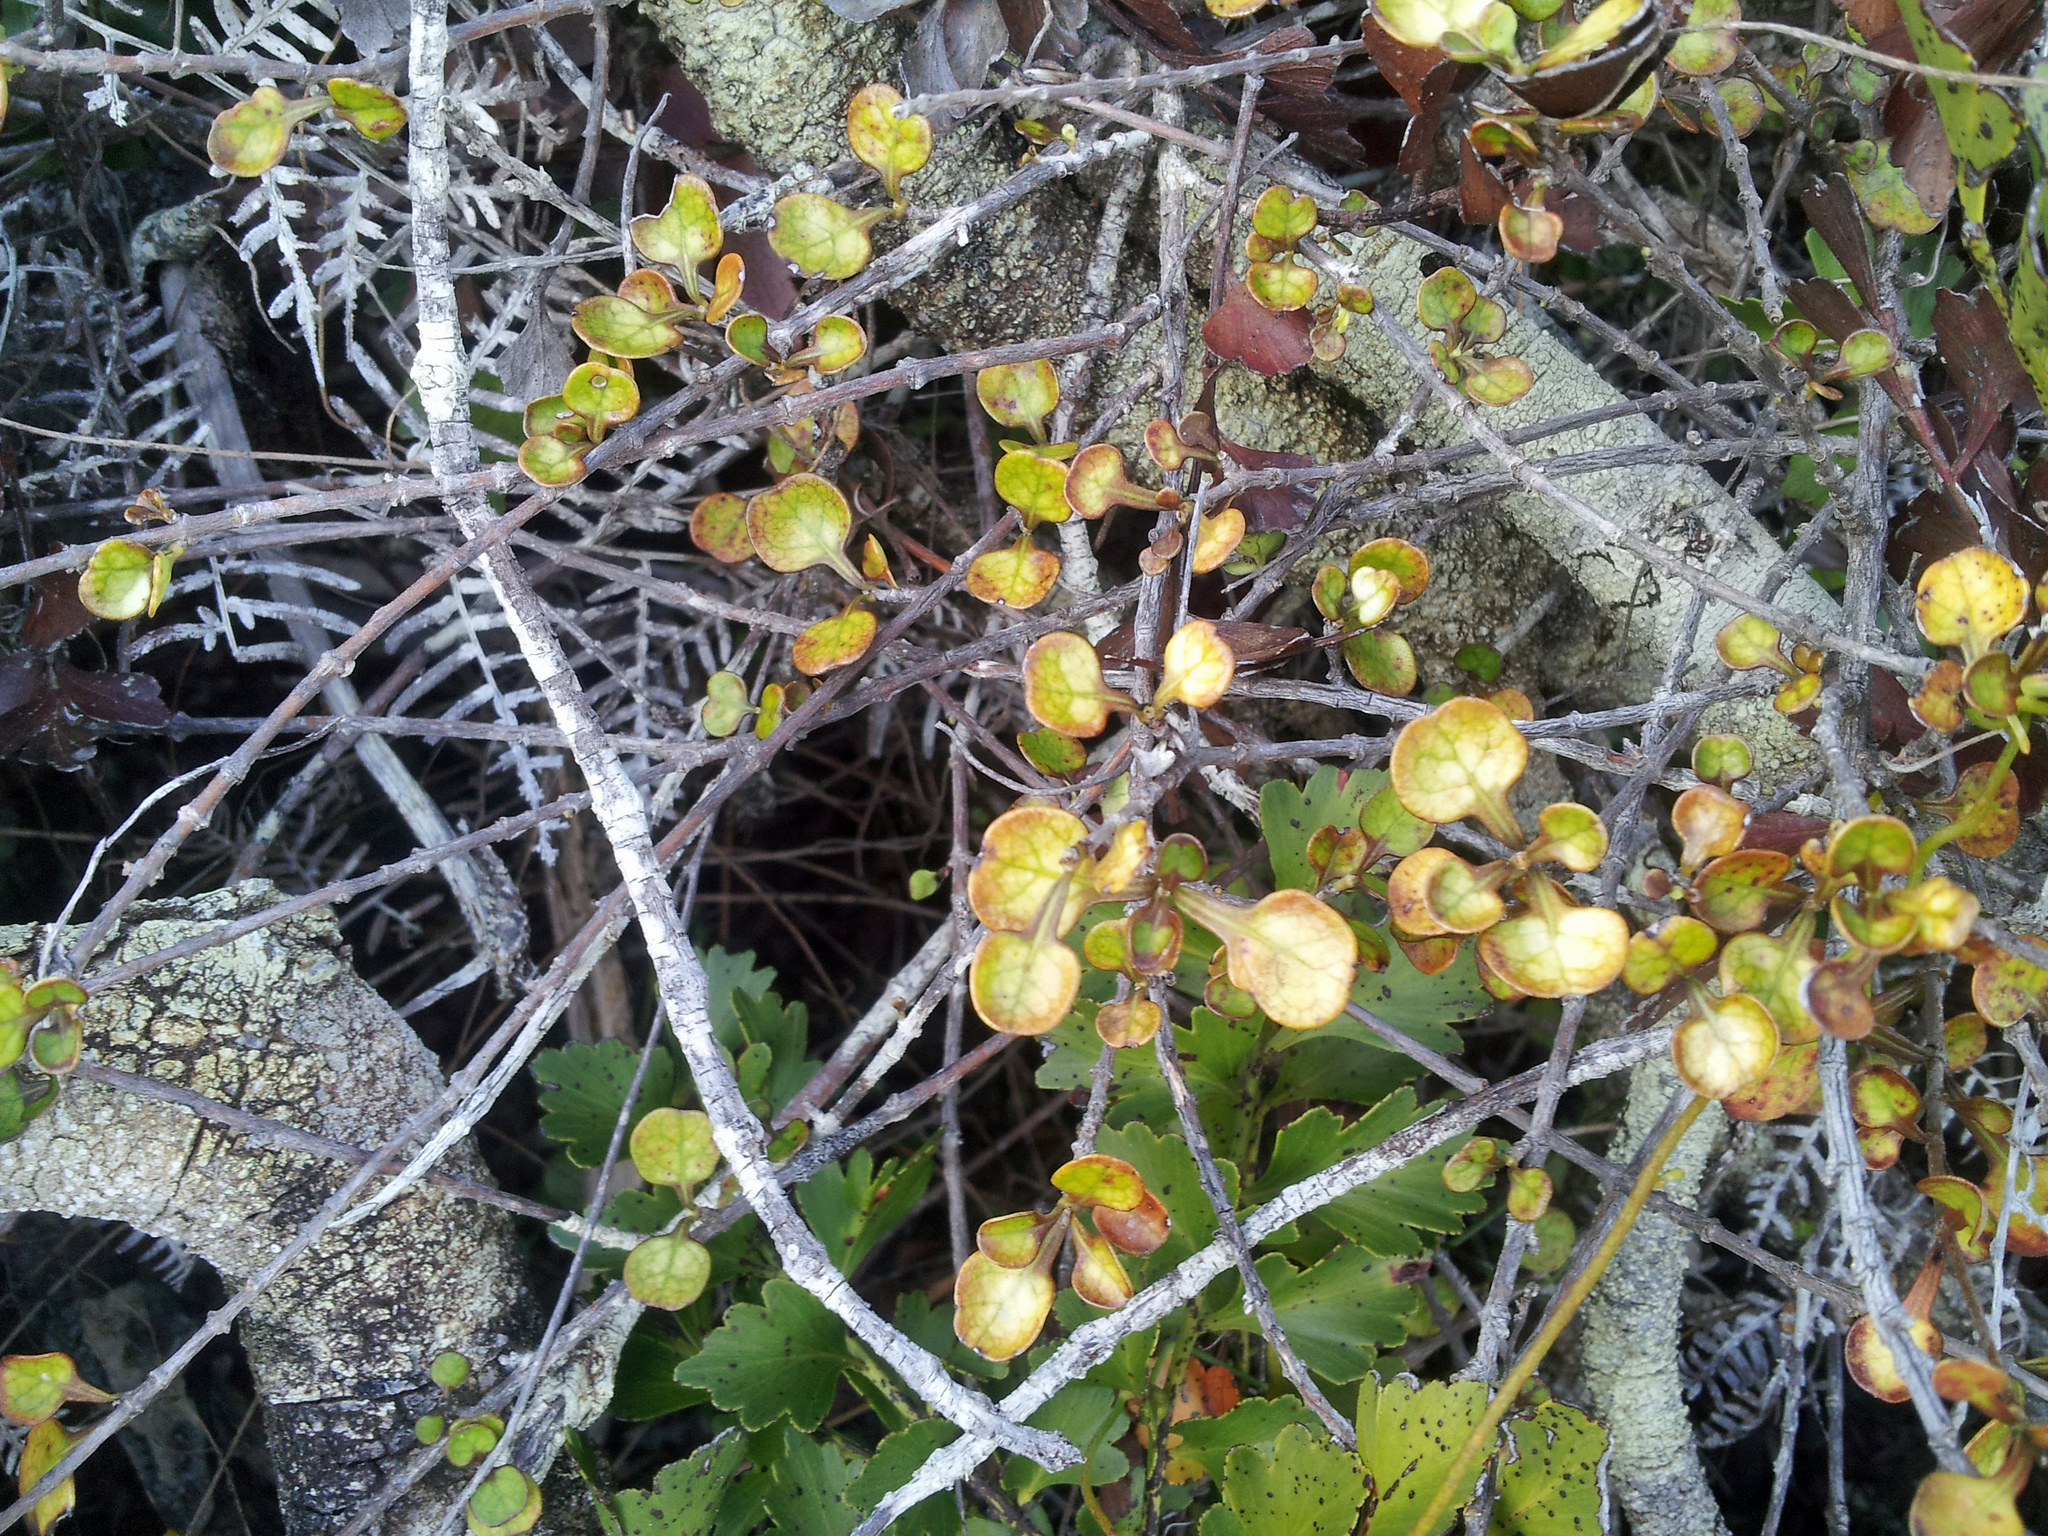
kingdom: Plantae
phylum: Tracheophyta
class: Magnoliopsida
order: Gentianales
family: Rubiaceae
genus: Coprosma
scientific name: Coprosma spathulata
